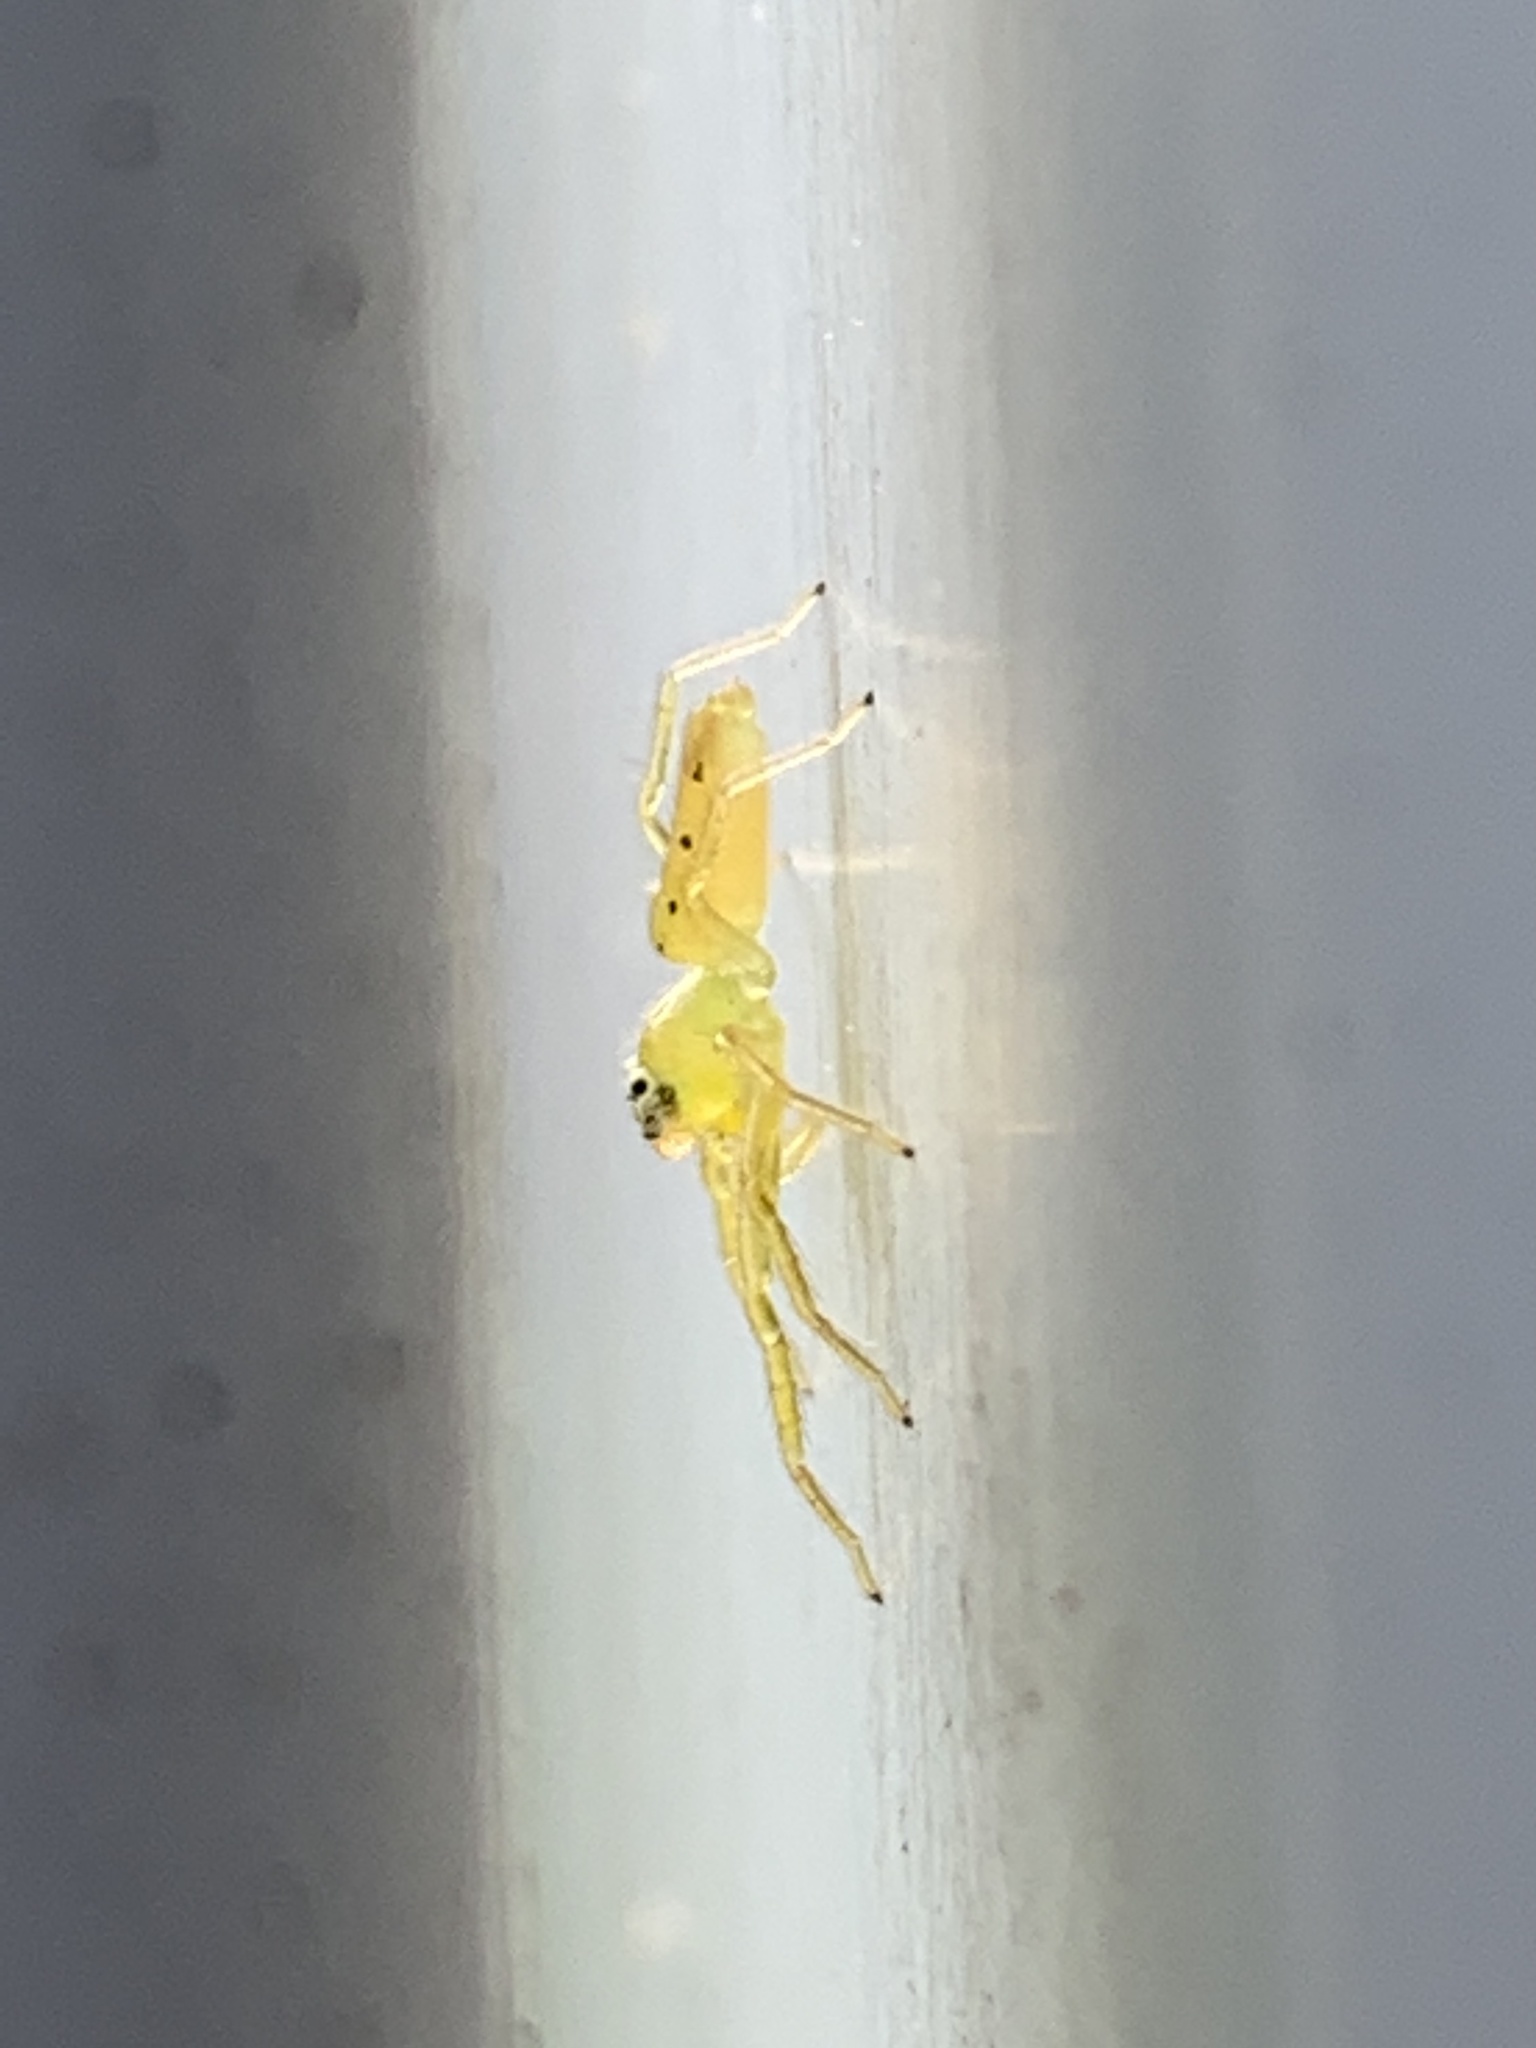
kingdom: Animalia
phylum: Arthropoda
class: Arachnida
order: Araneae
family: Salticidae
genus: Lyssomanes
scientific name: Lyssomanes viridis
